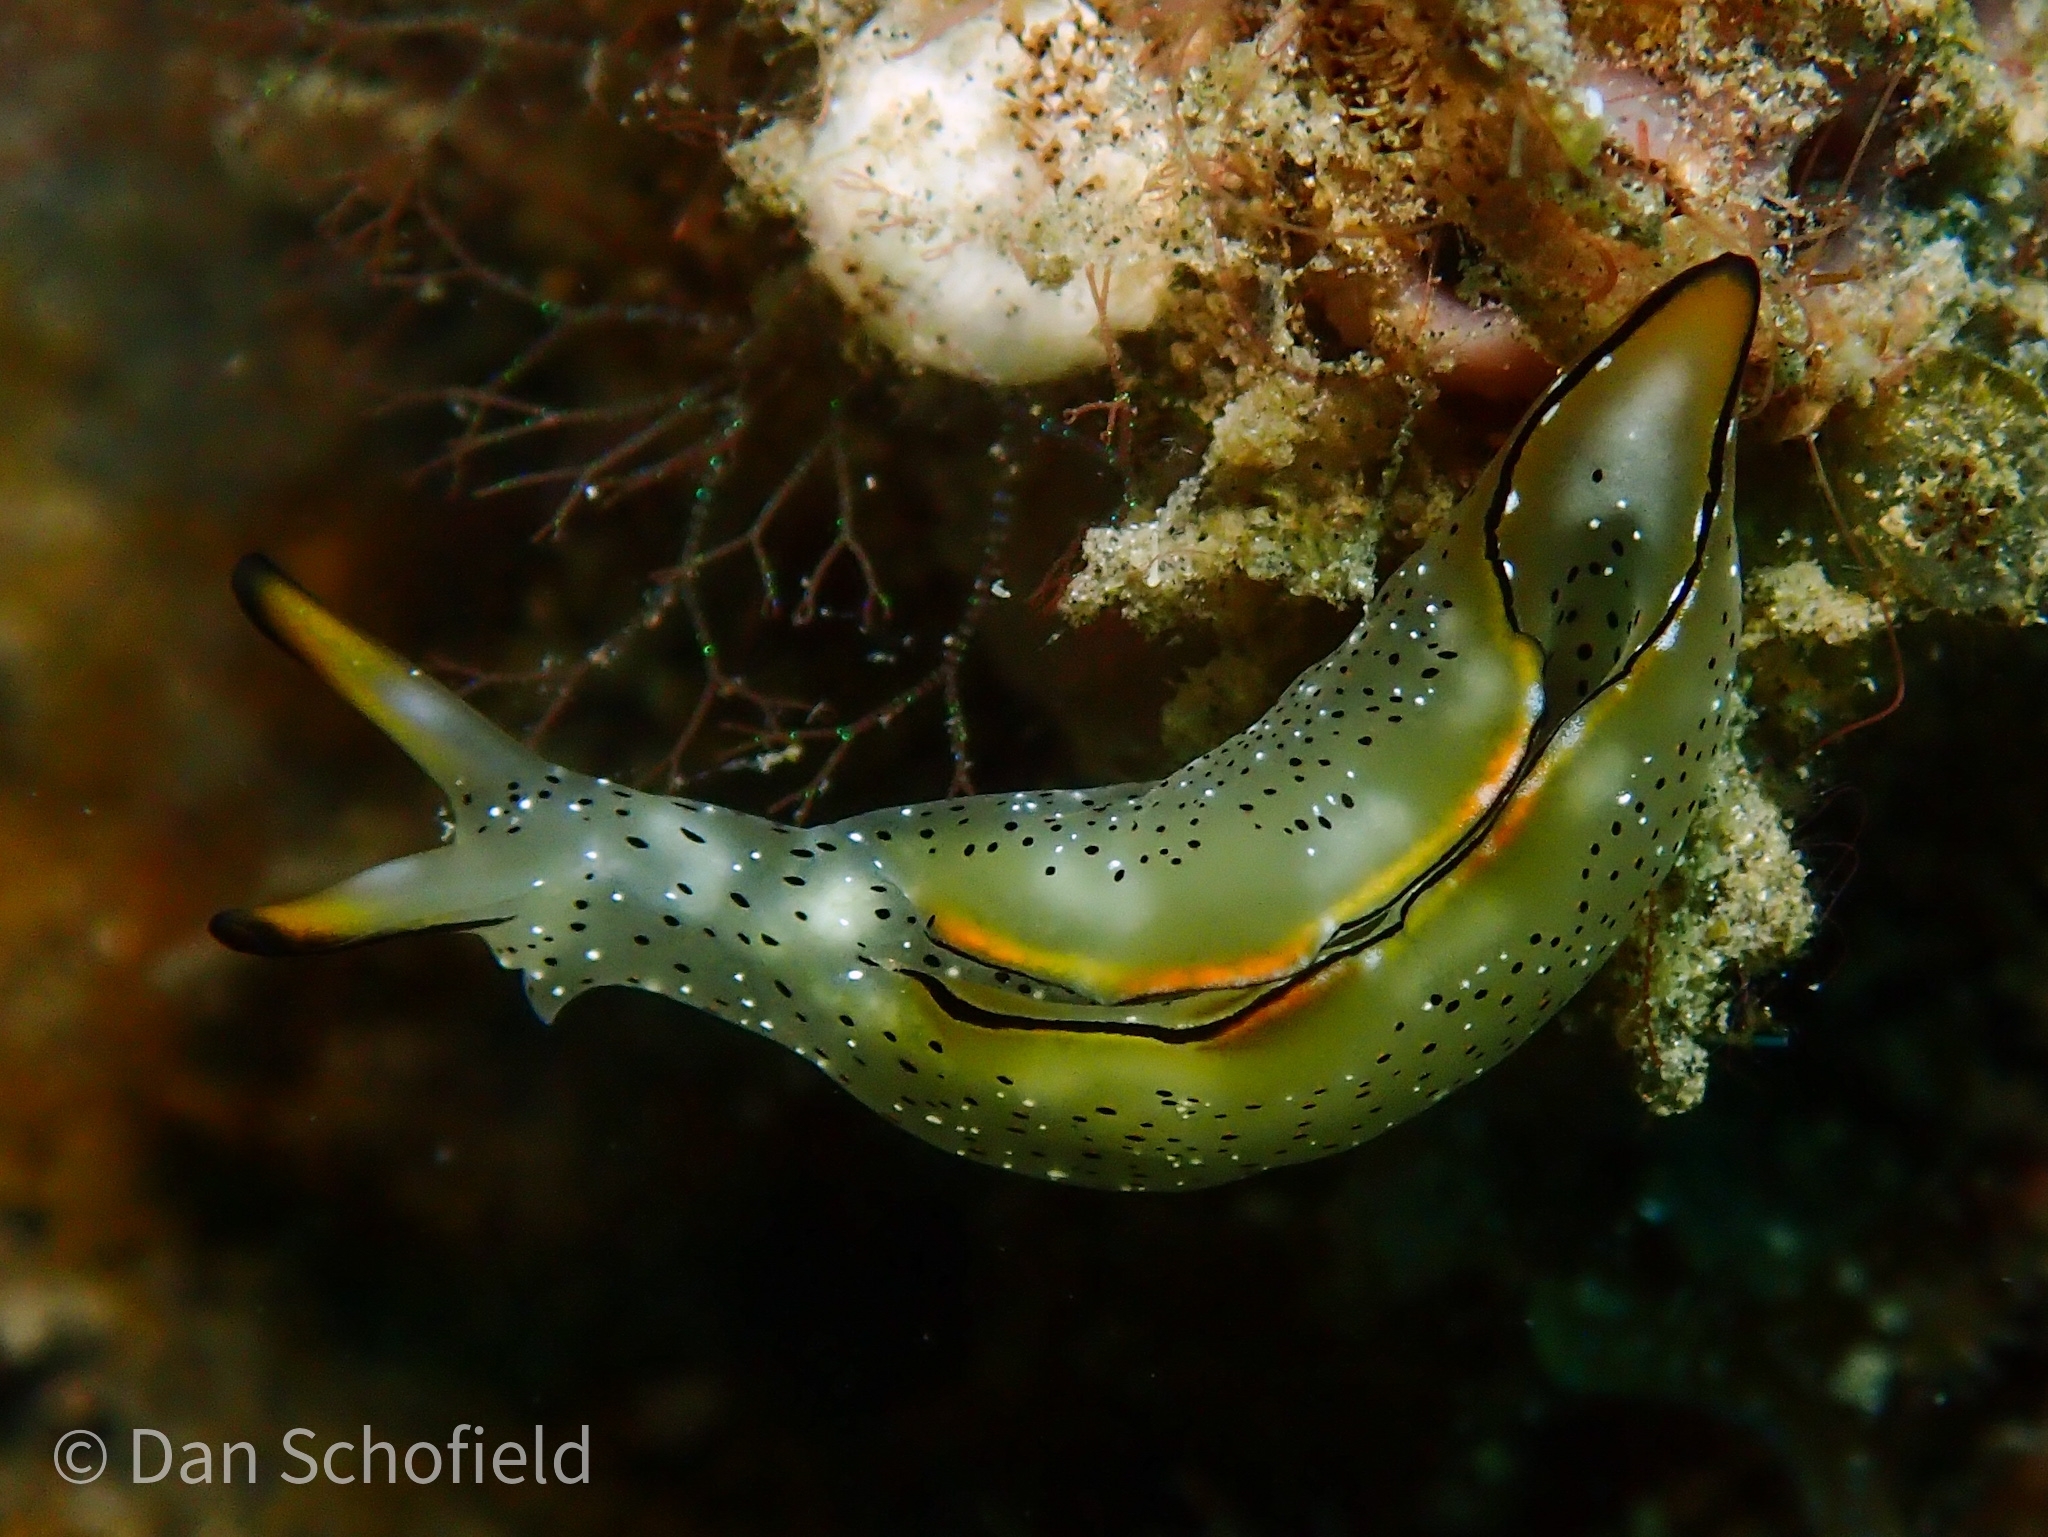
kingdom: Animalia
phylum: Mollusca
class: Gastropoda
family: Plakobranchidae
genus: Elysia
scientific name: Elysia marginata
